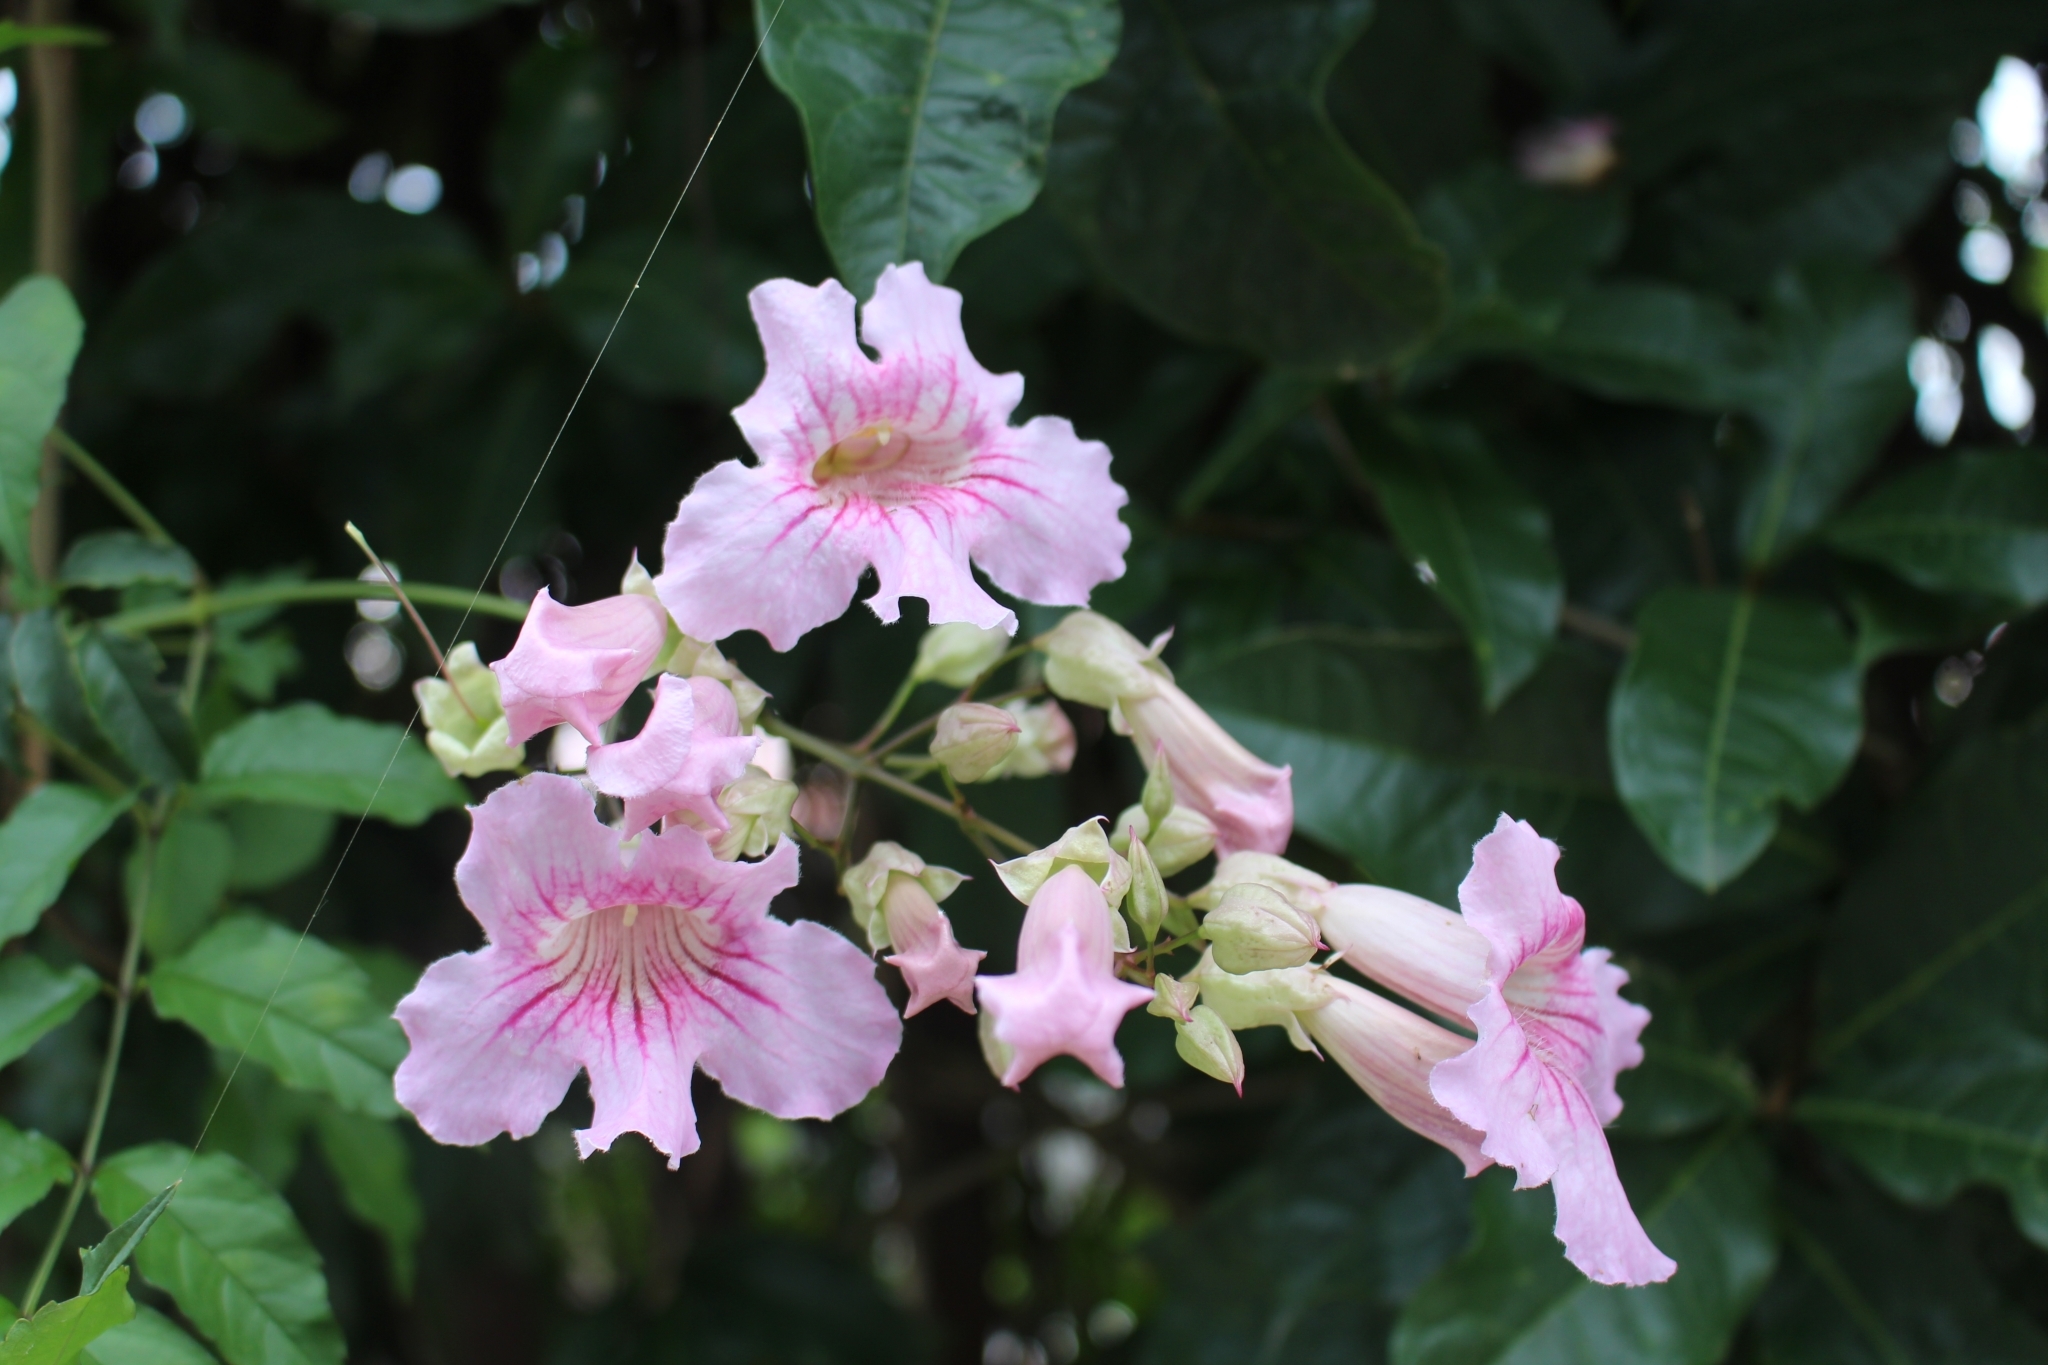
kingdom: Plantae
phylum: Tracheophyta
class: Magnoliopsida
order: Lamiales
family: Bignoniaceae
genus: Podranea
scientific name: Podranea ricasoliana
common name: Zimbabwe creeper
